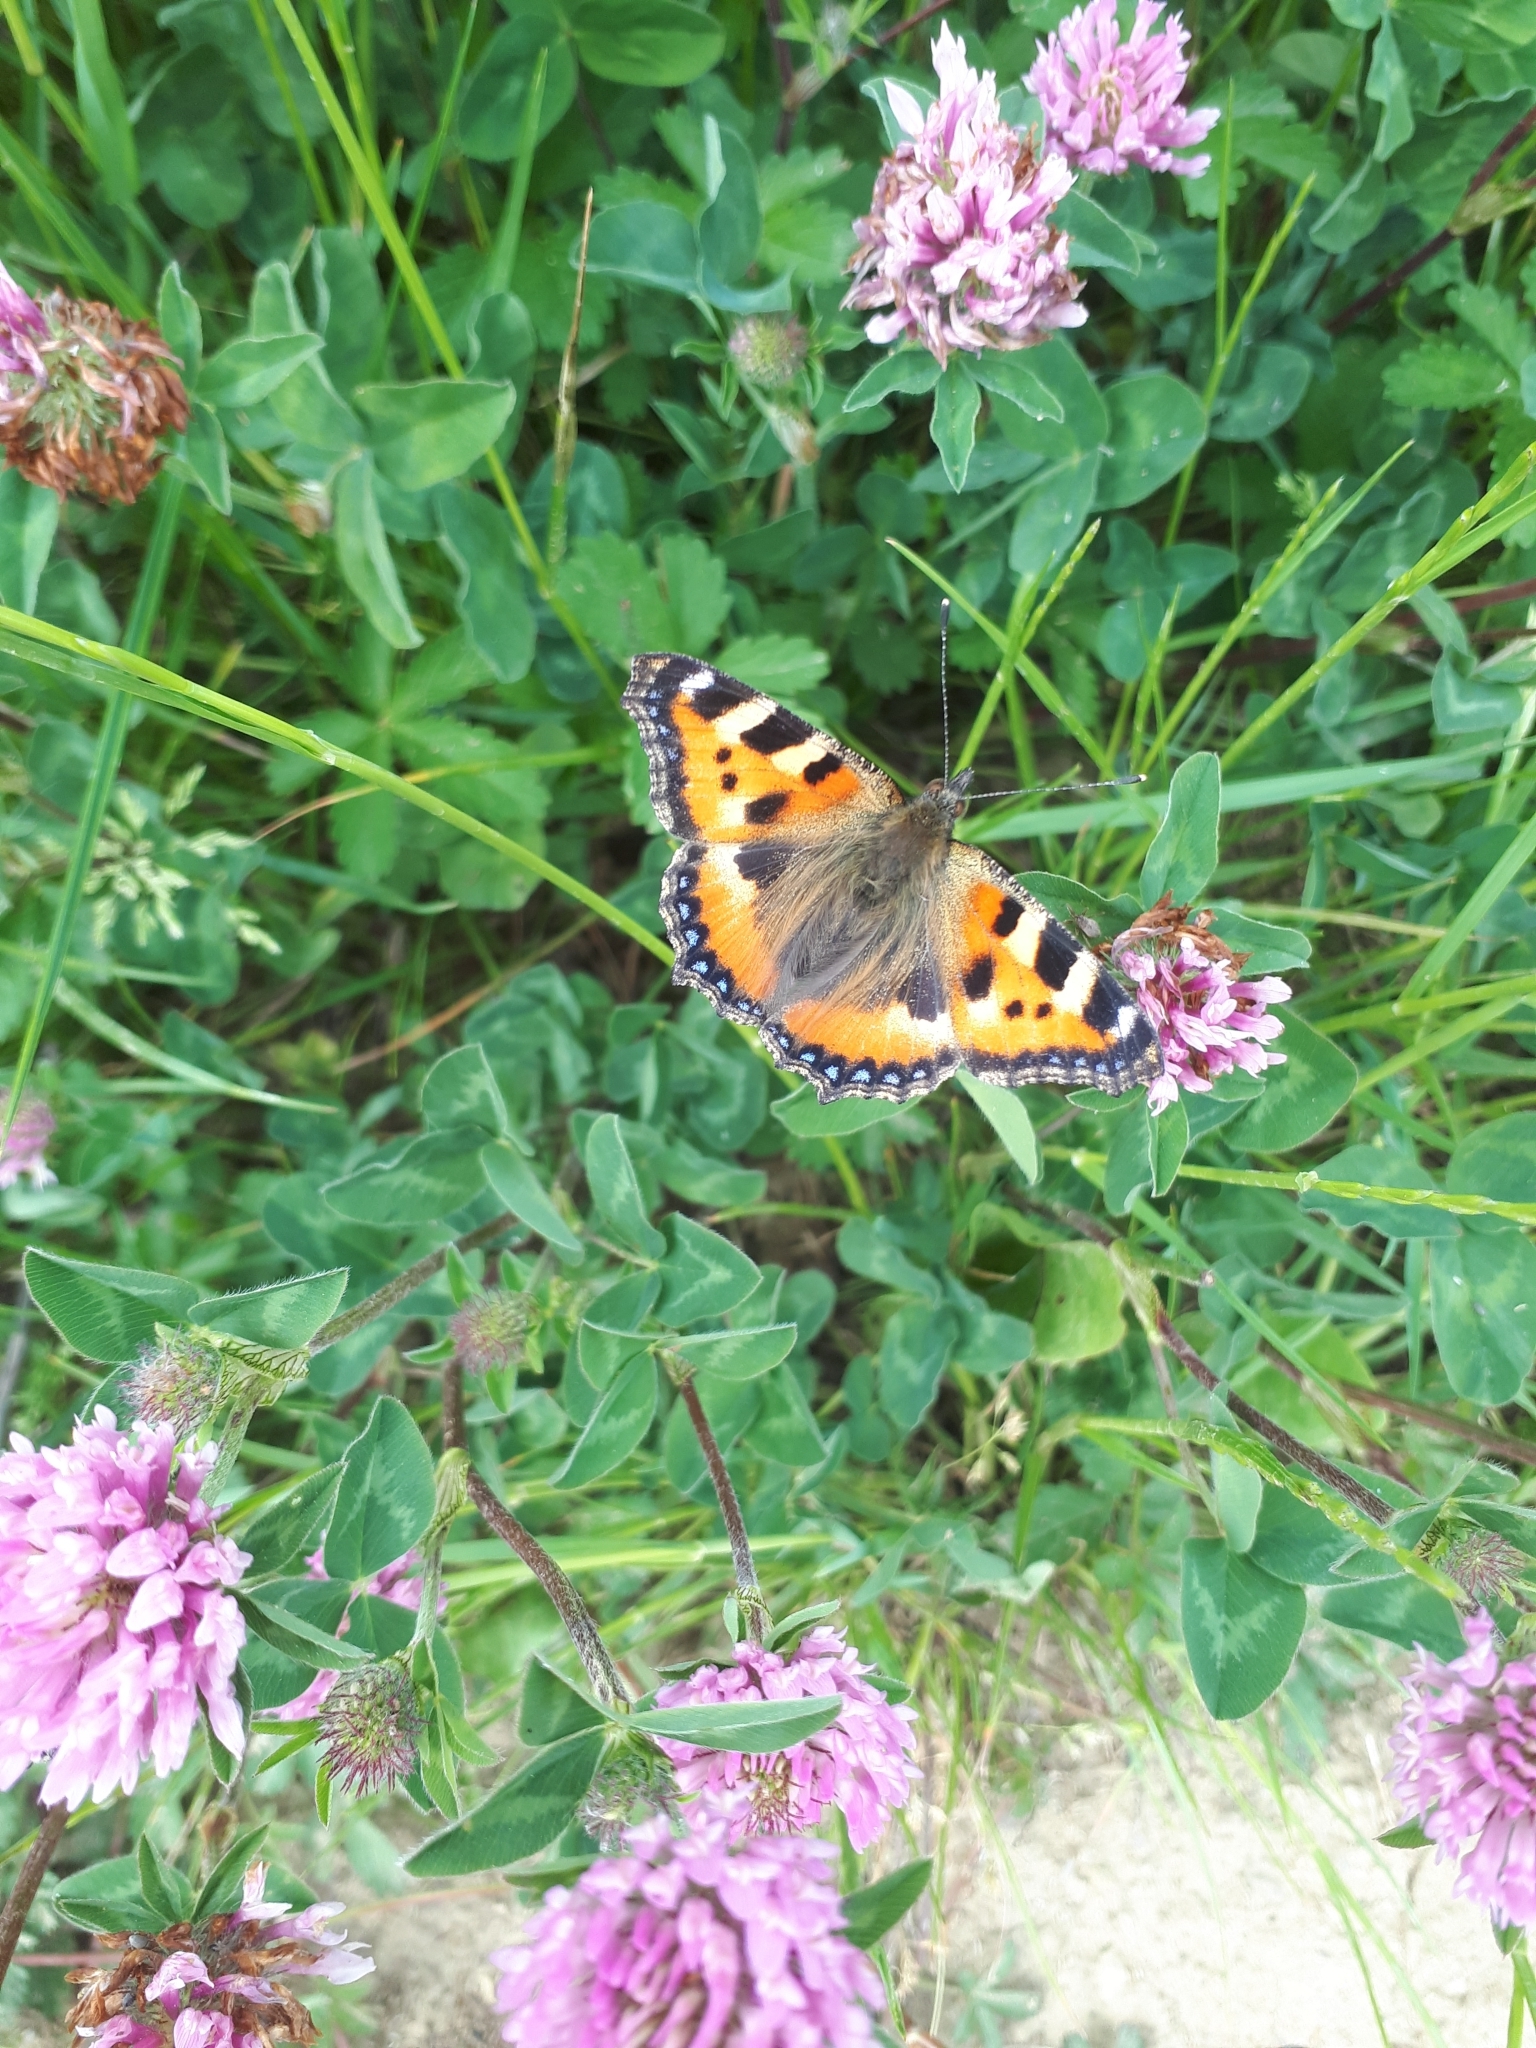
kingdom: Animalia
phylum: Arthropoda
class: Insecta
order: Lepidoptera
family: Nymphalidae
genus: Aglais
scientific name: Aglais urticae
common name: Small tortoiseshell
